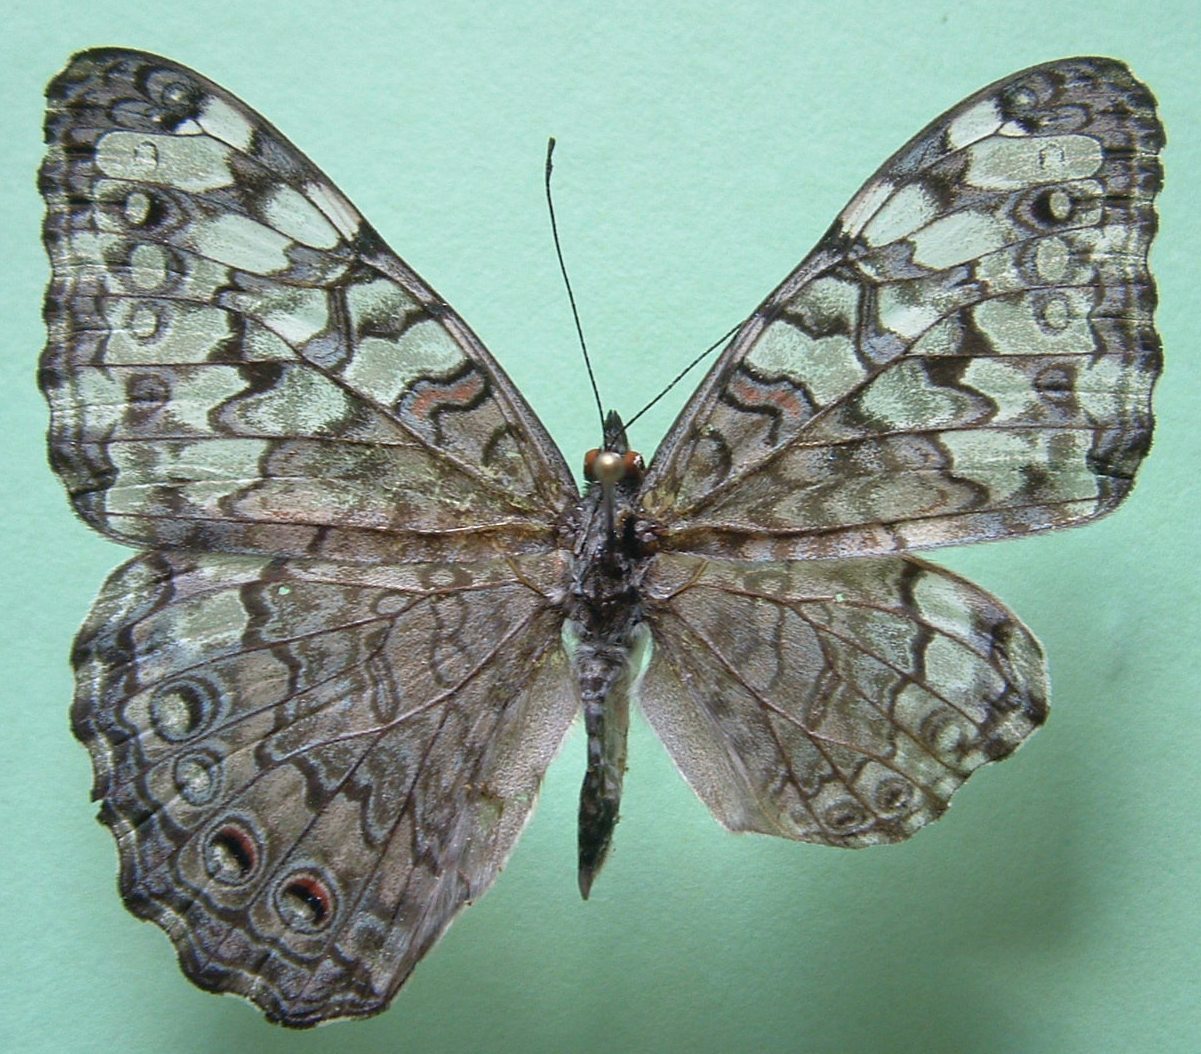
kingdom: Animalia
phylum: Arthropoda
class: Insecta
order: Lepidoptera
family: Nymphalidae
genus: Hamadryas
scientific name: Hamadryas februa
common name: Gray cracker
